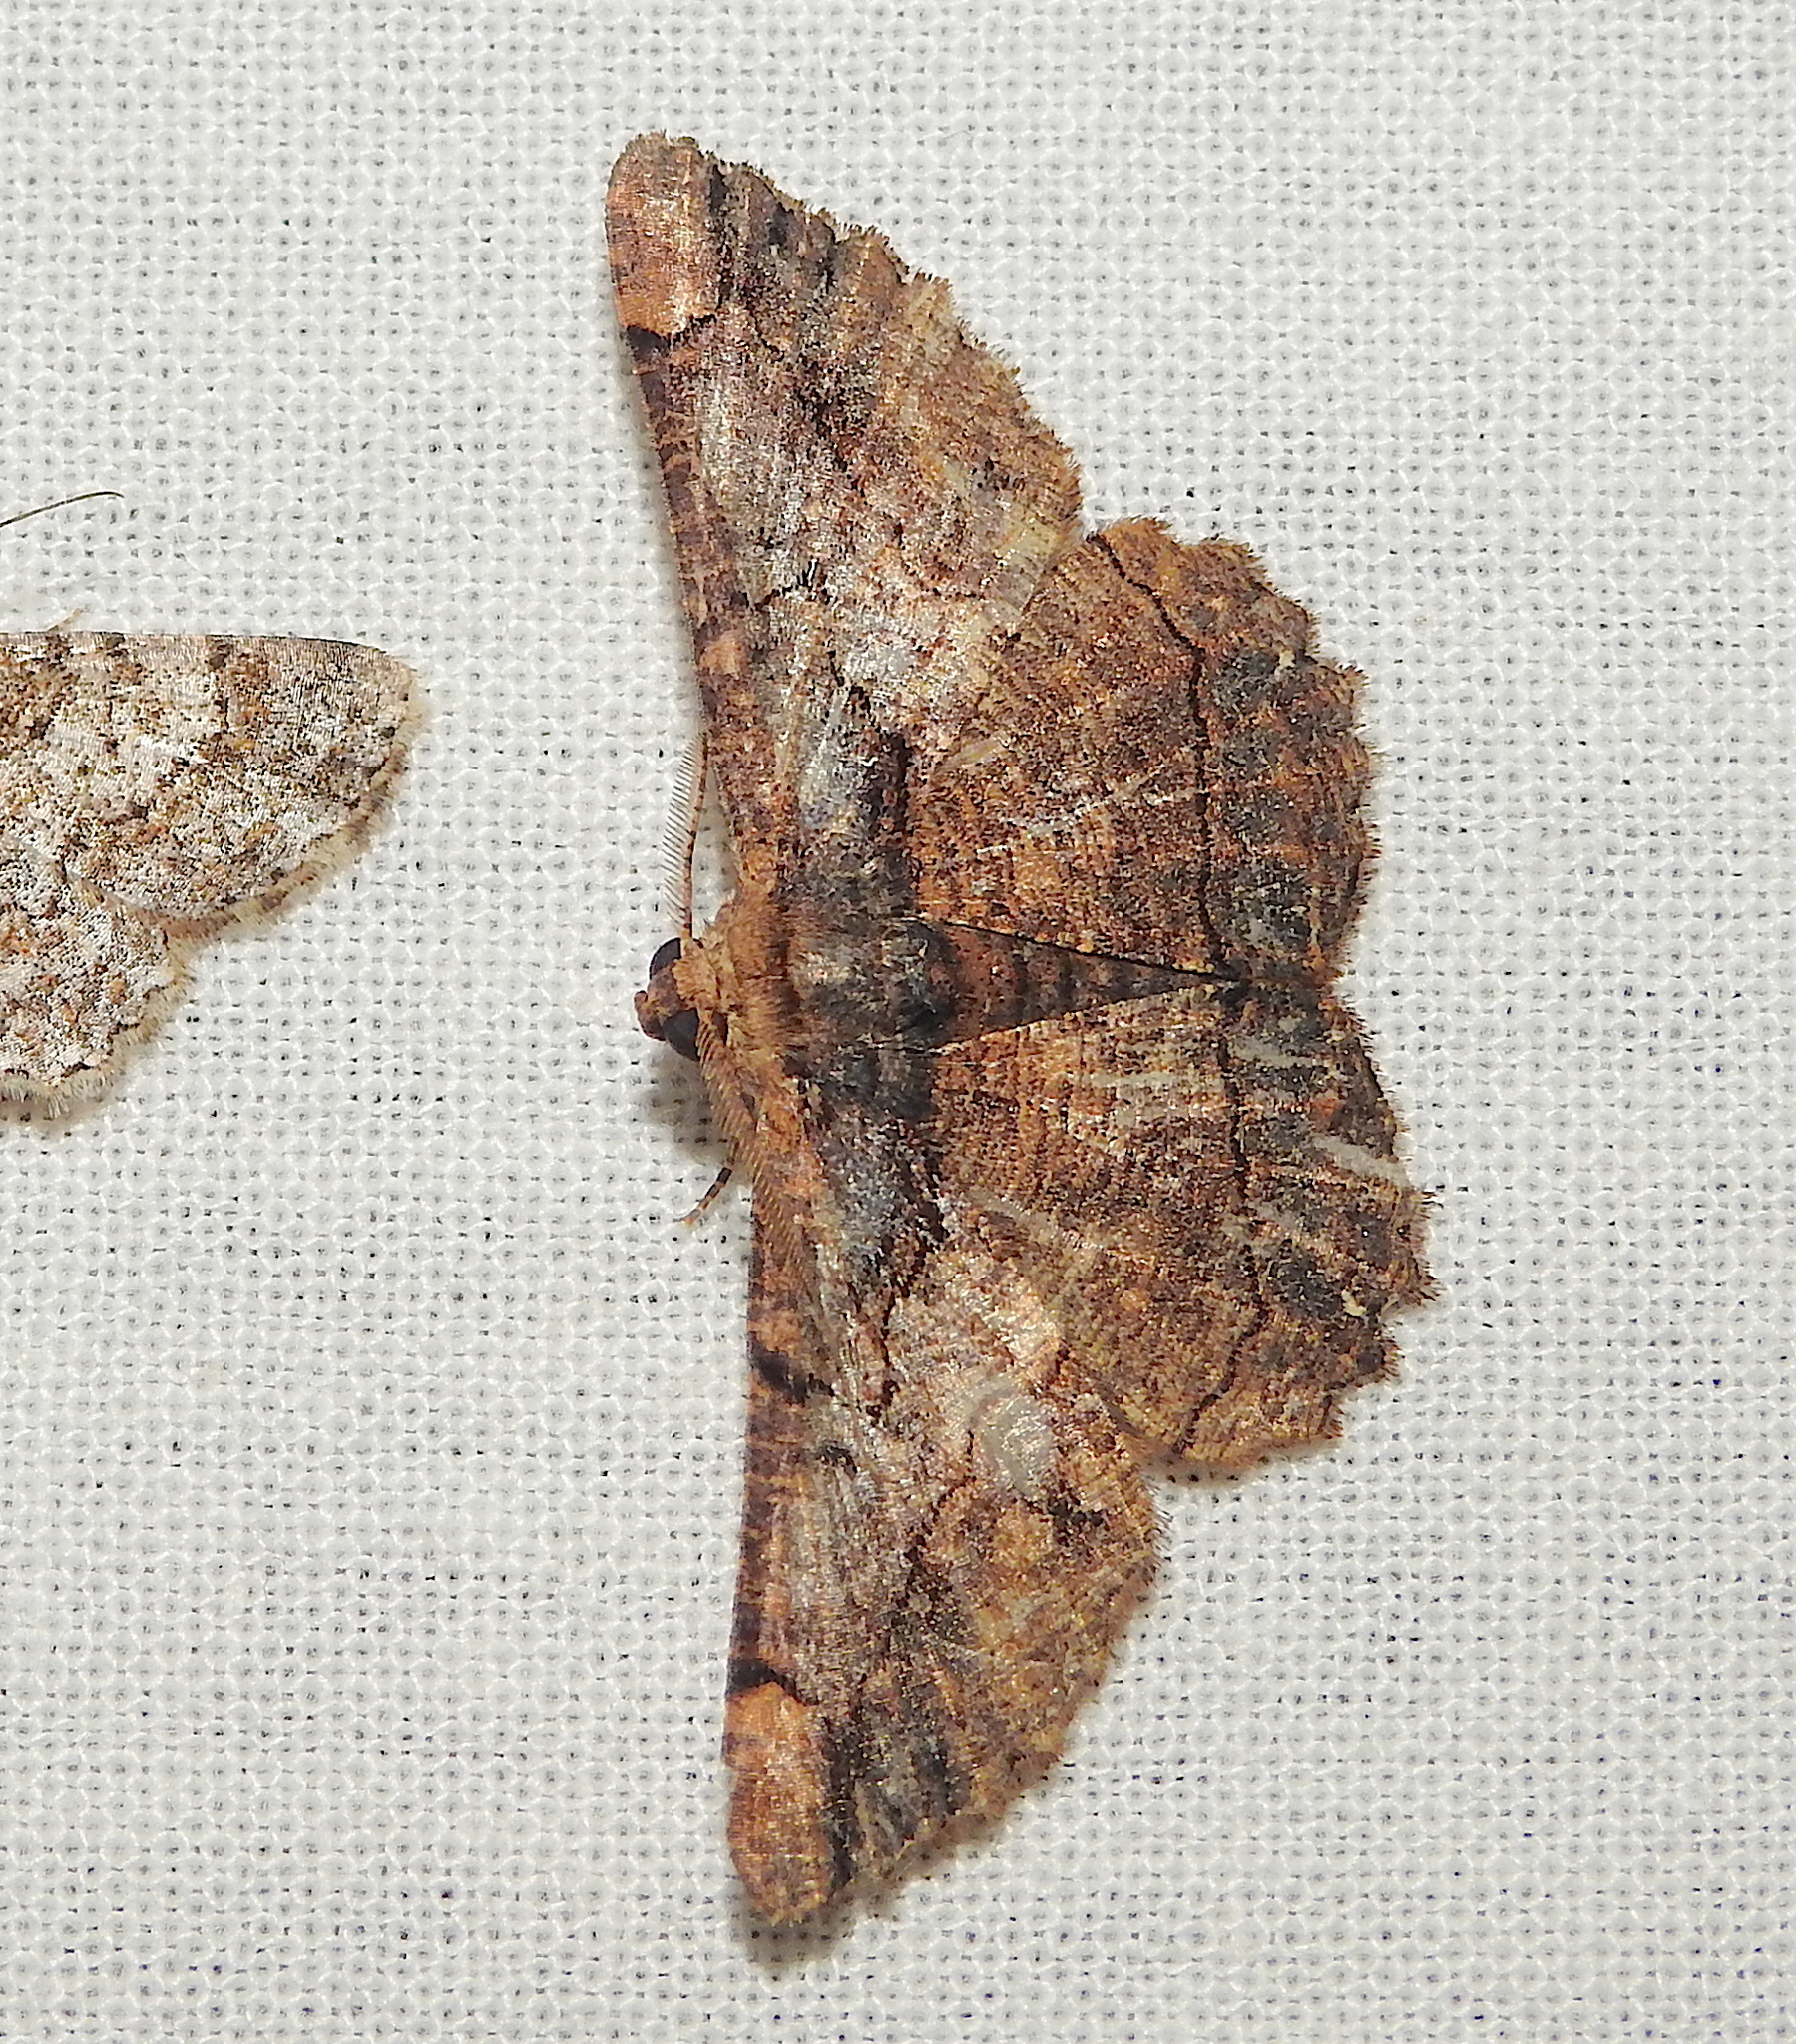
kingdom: Animalia
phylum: Arthropoda
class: Insecta
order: Lepidoptera
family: Geometridae
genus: Dasyboarmia
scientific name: Dasyboarmia subpilosa
